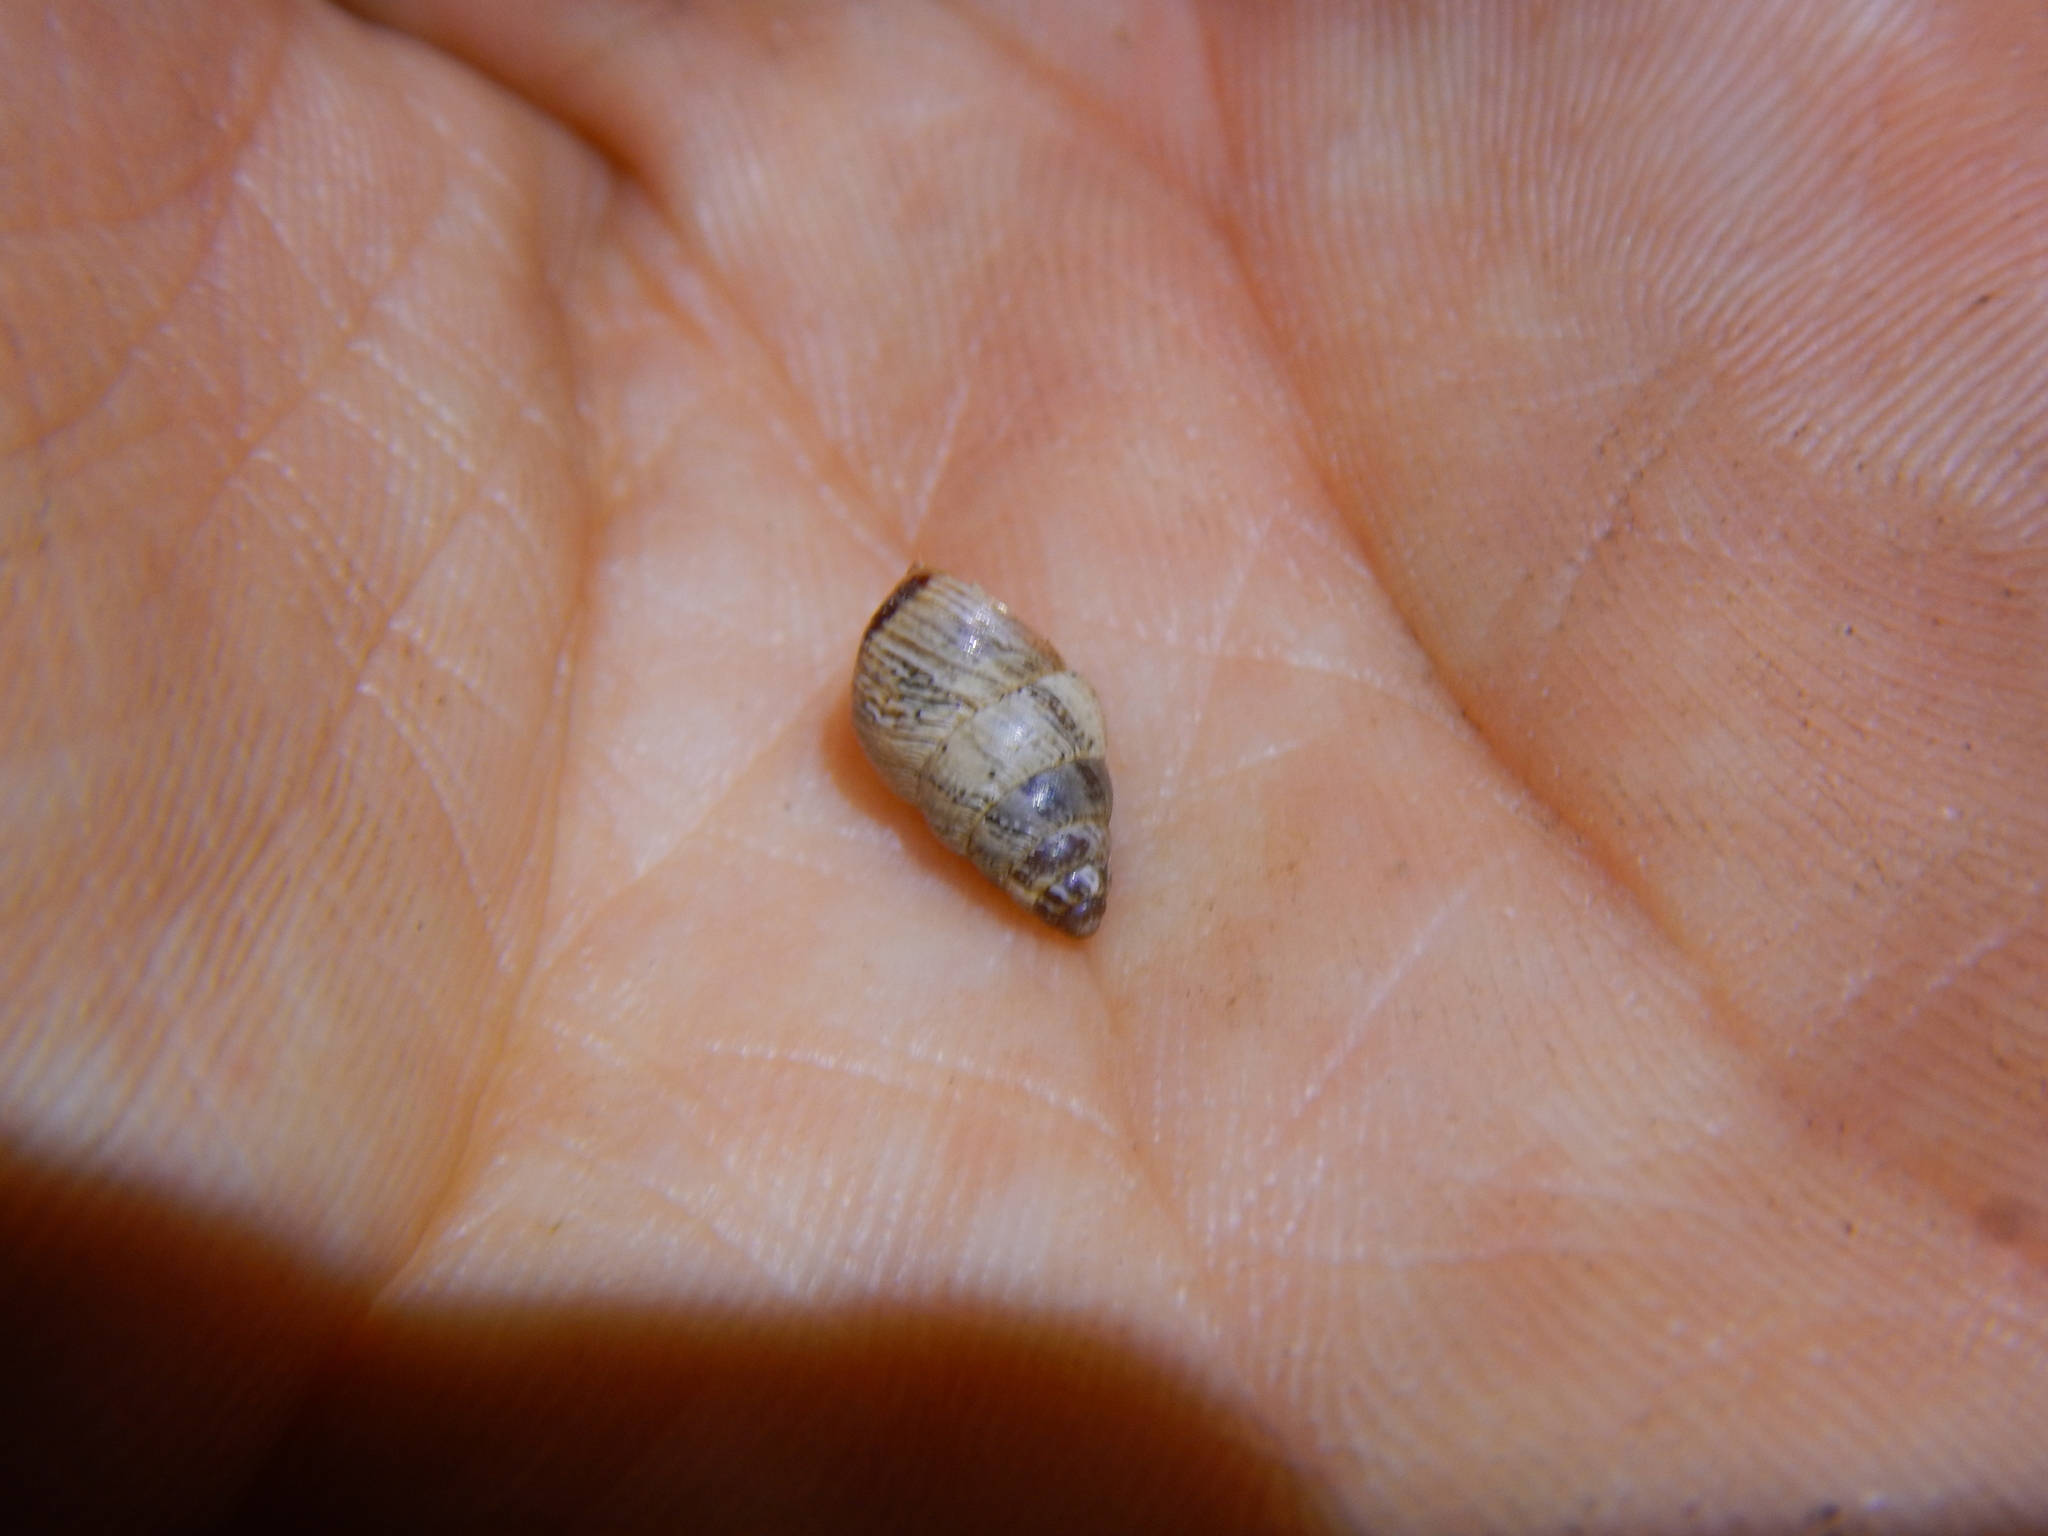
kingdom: Animalia
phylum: Mollusca
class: Gastropoda
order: Stylommatophora
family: Geomitridae
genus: Cochlicella
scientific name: Cochlicella barbara
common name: Potbellied helicellid
